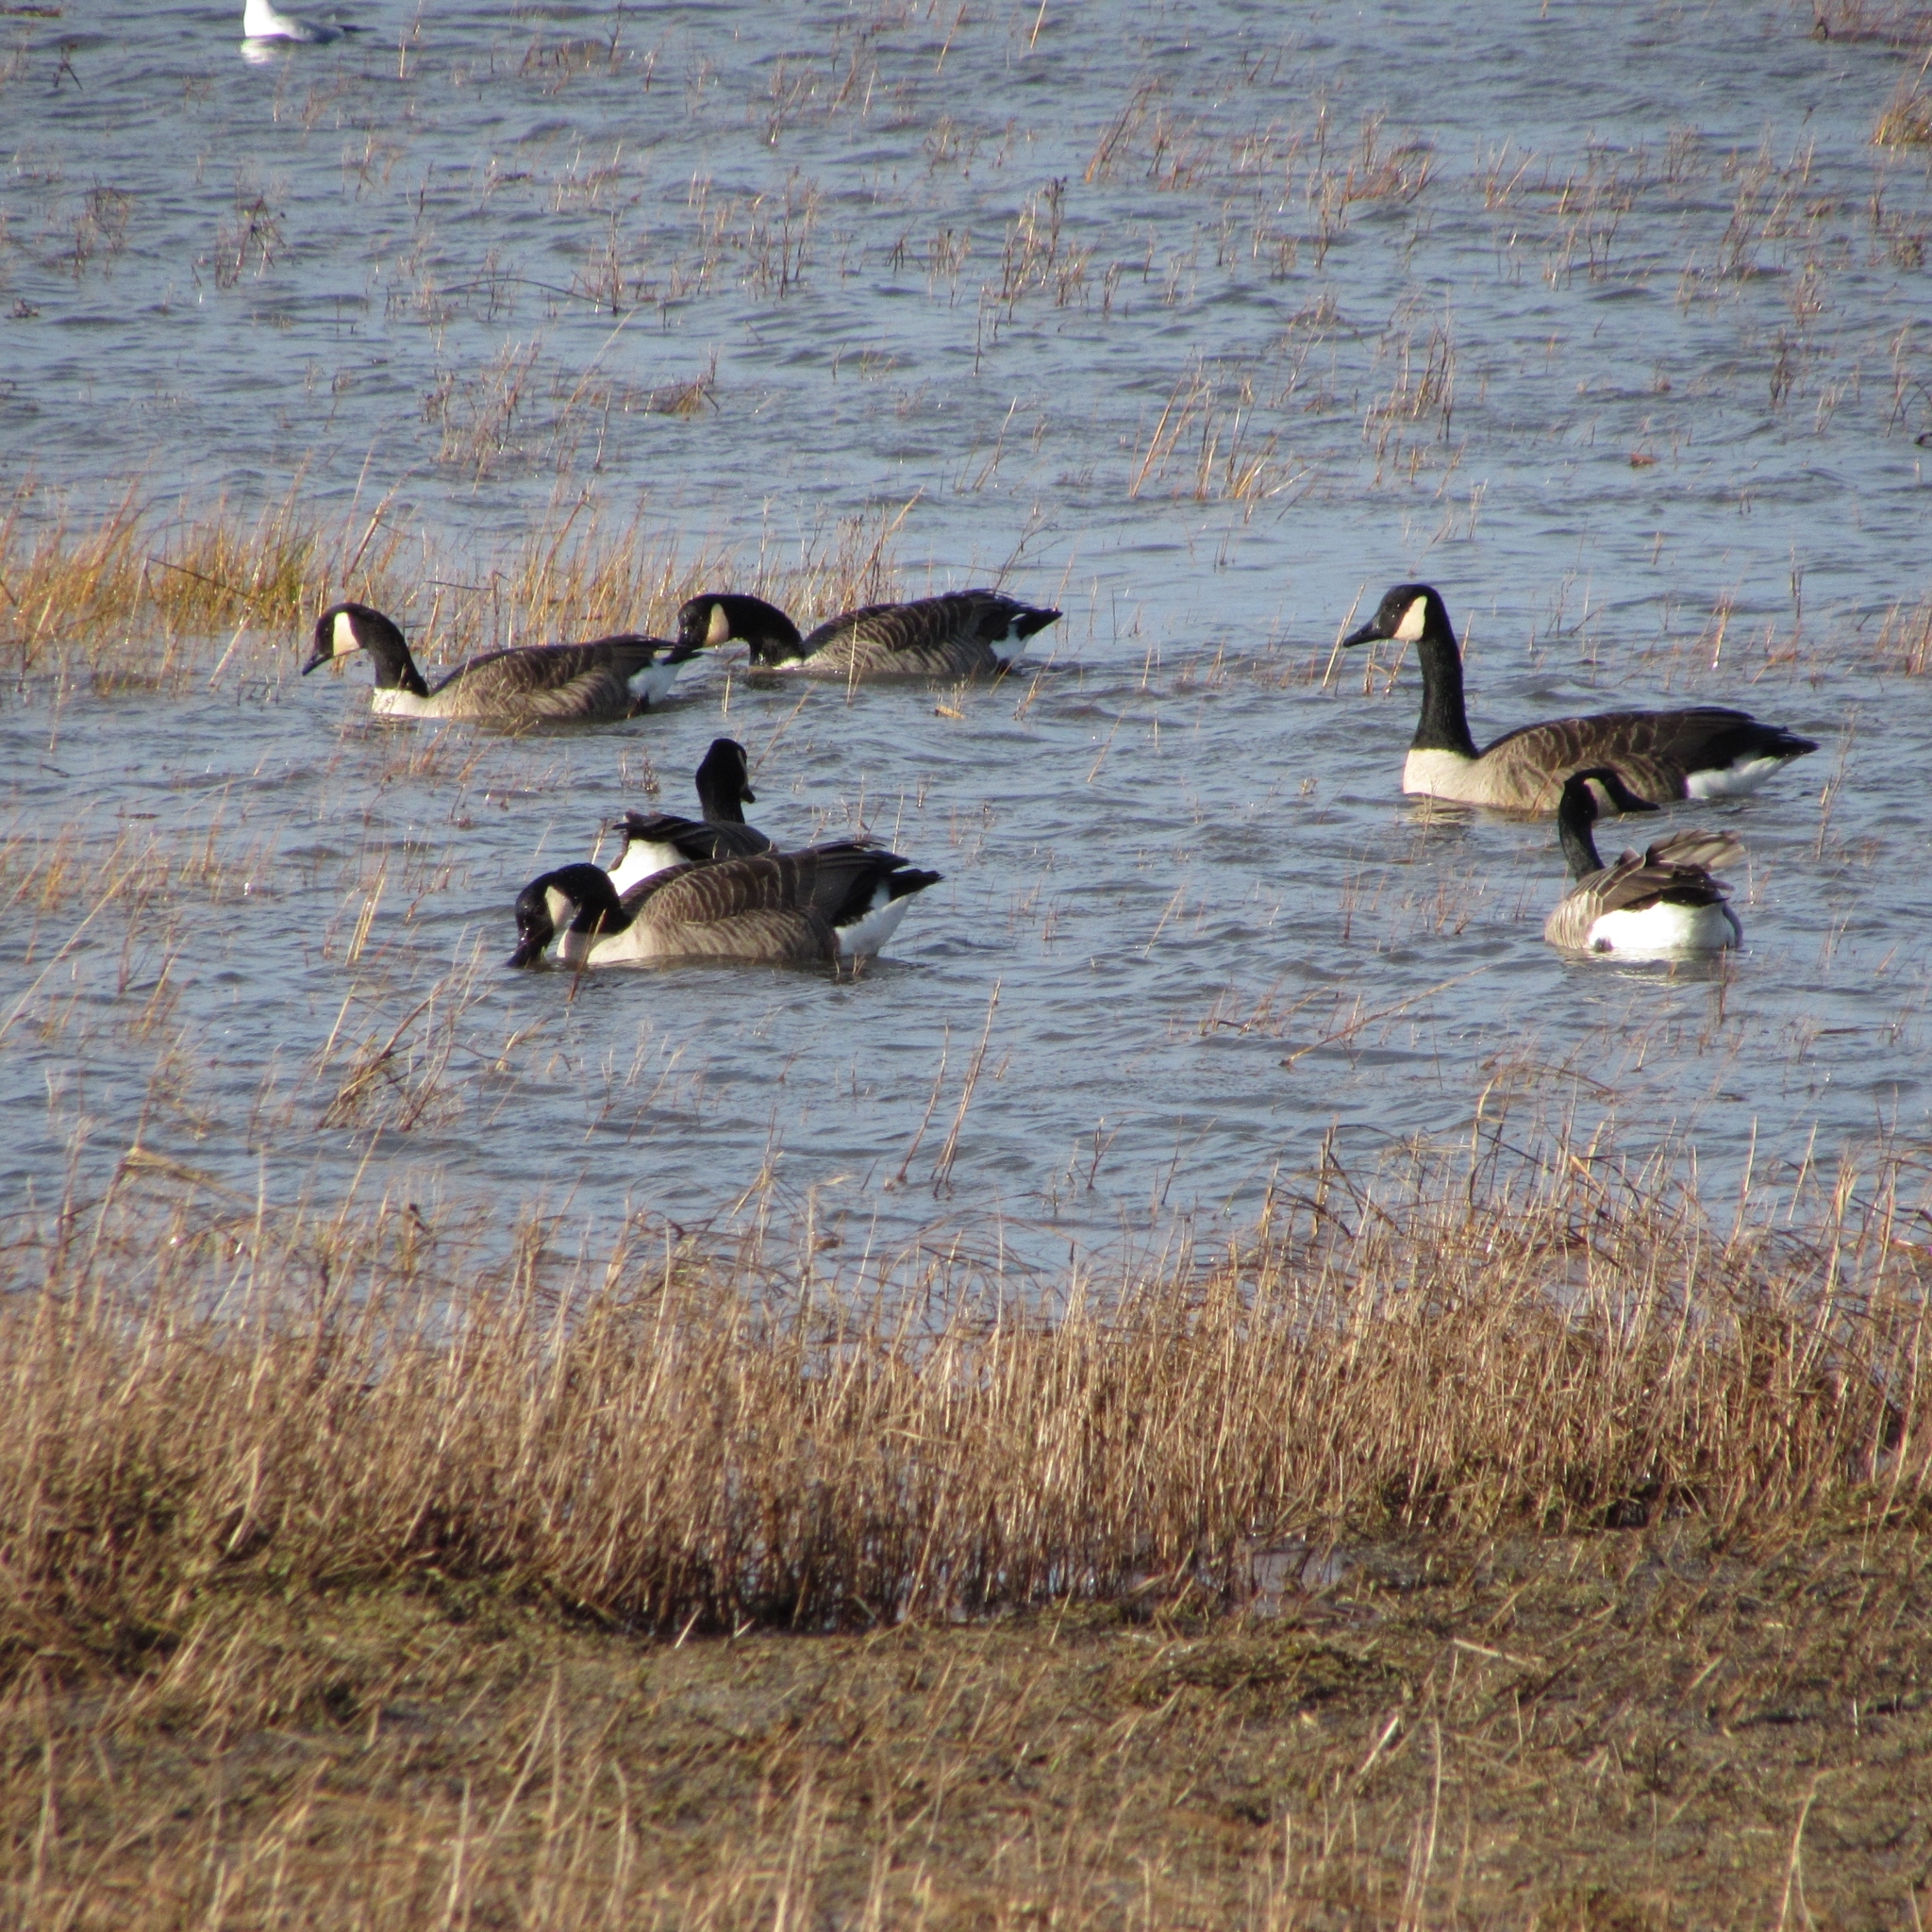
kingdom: Animalia
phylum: Chordata
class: Aves
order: Anseriformes
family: Anatidae
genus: Branta
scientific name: Branta canadensis
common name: Canada goose
